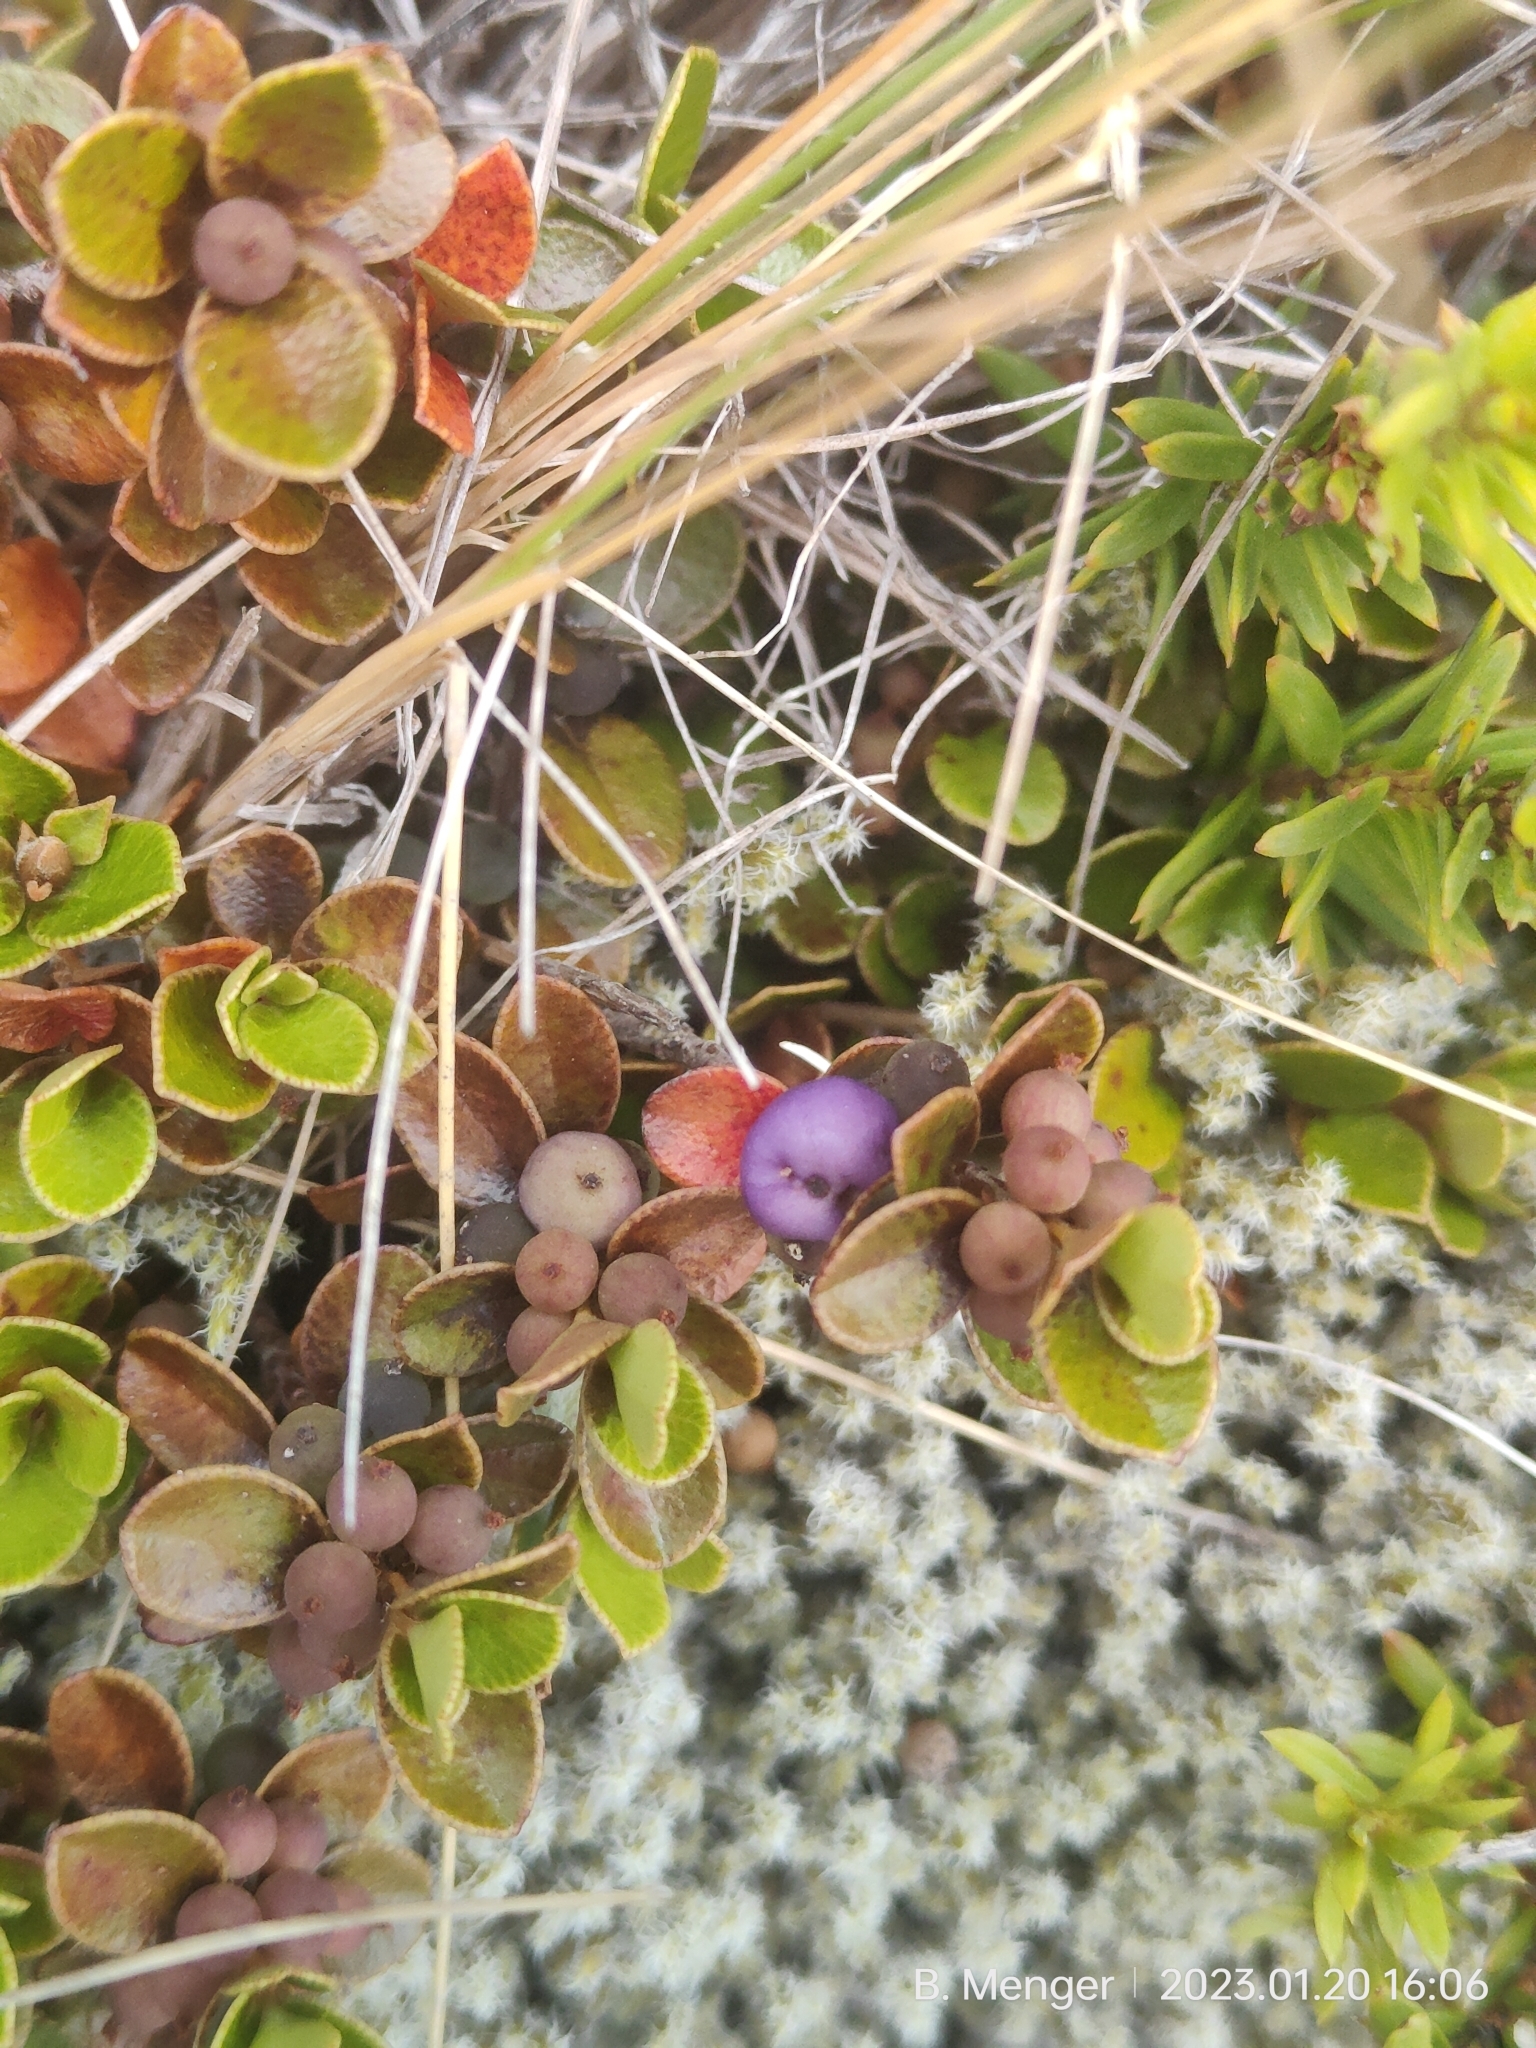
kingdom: Plantae
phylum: Tracheophyta
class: Magnoliopsida
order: Ericales
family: Primulaceae
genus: Myrsine
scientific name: Myrsine nummularia
